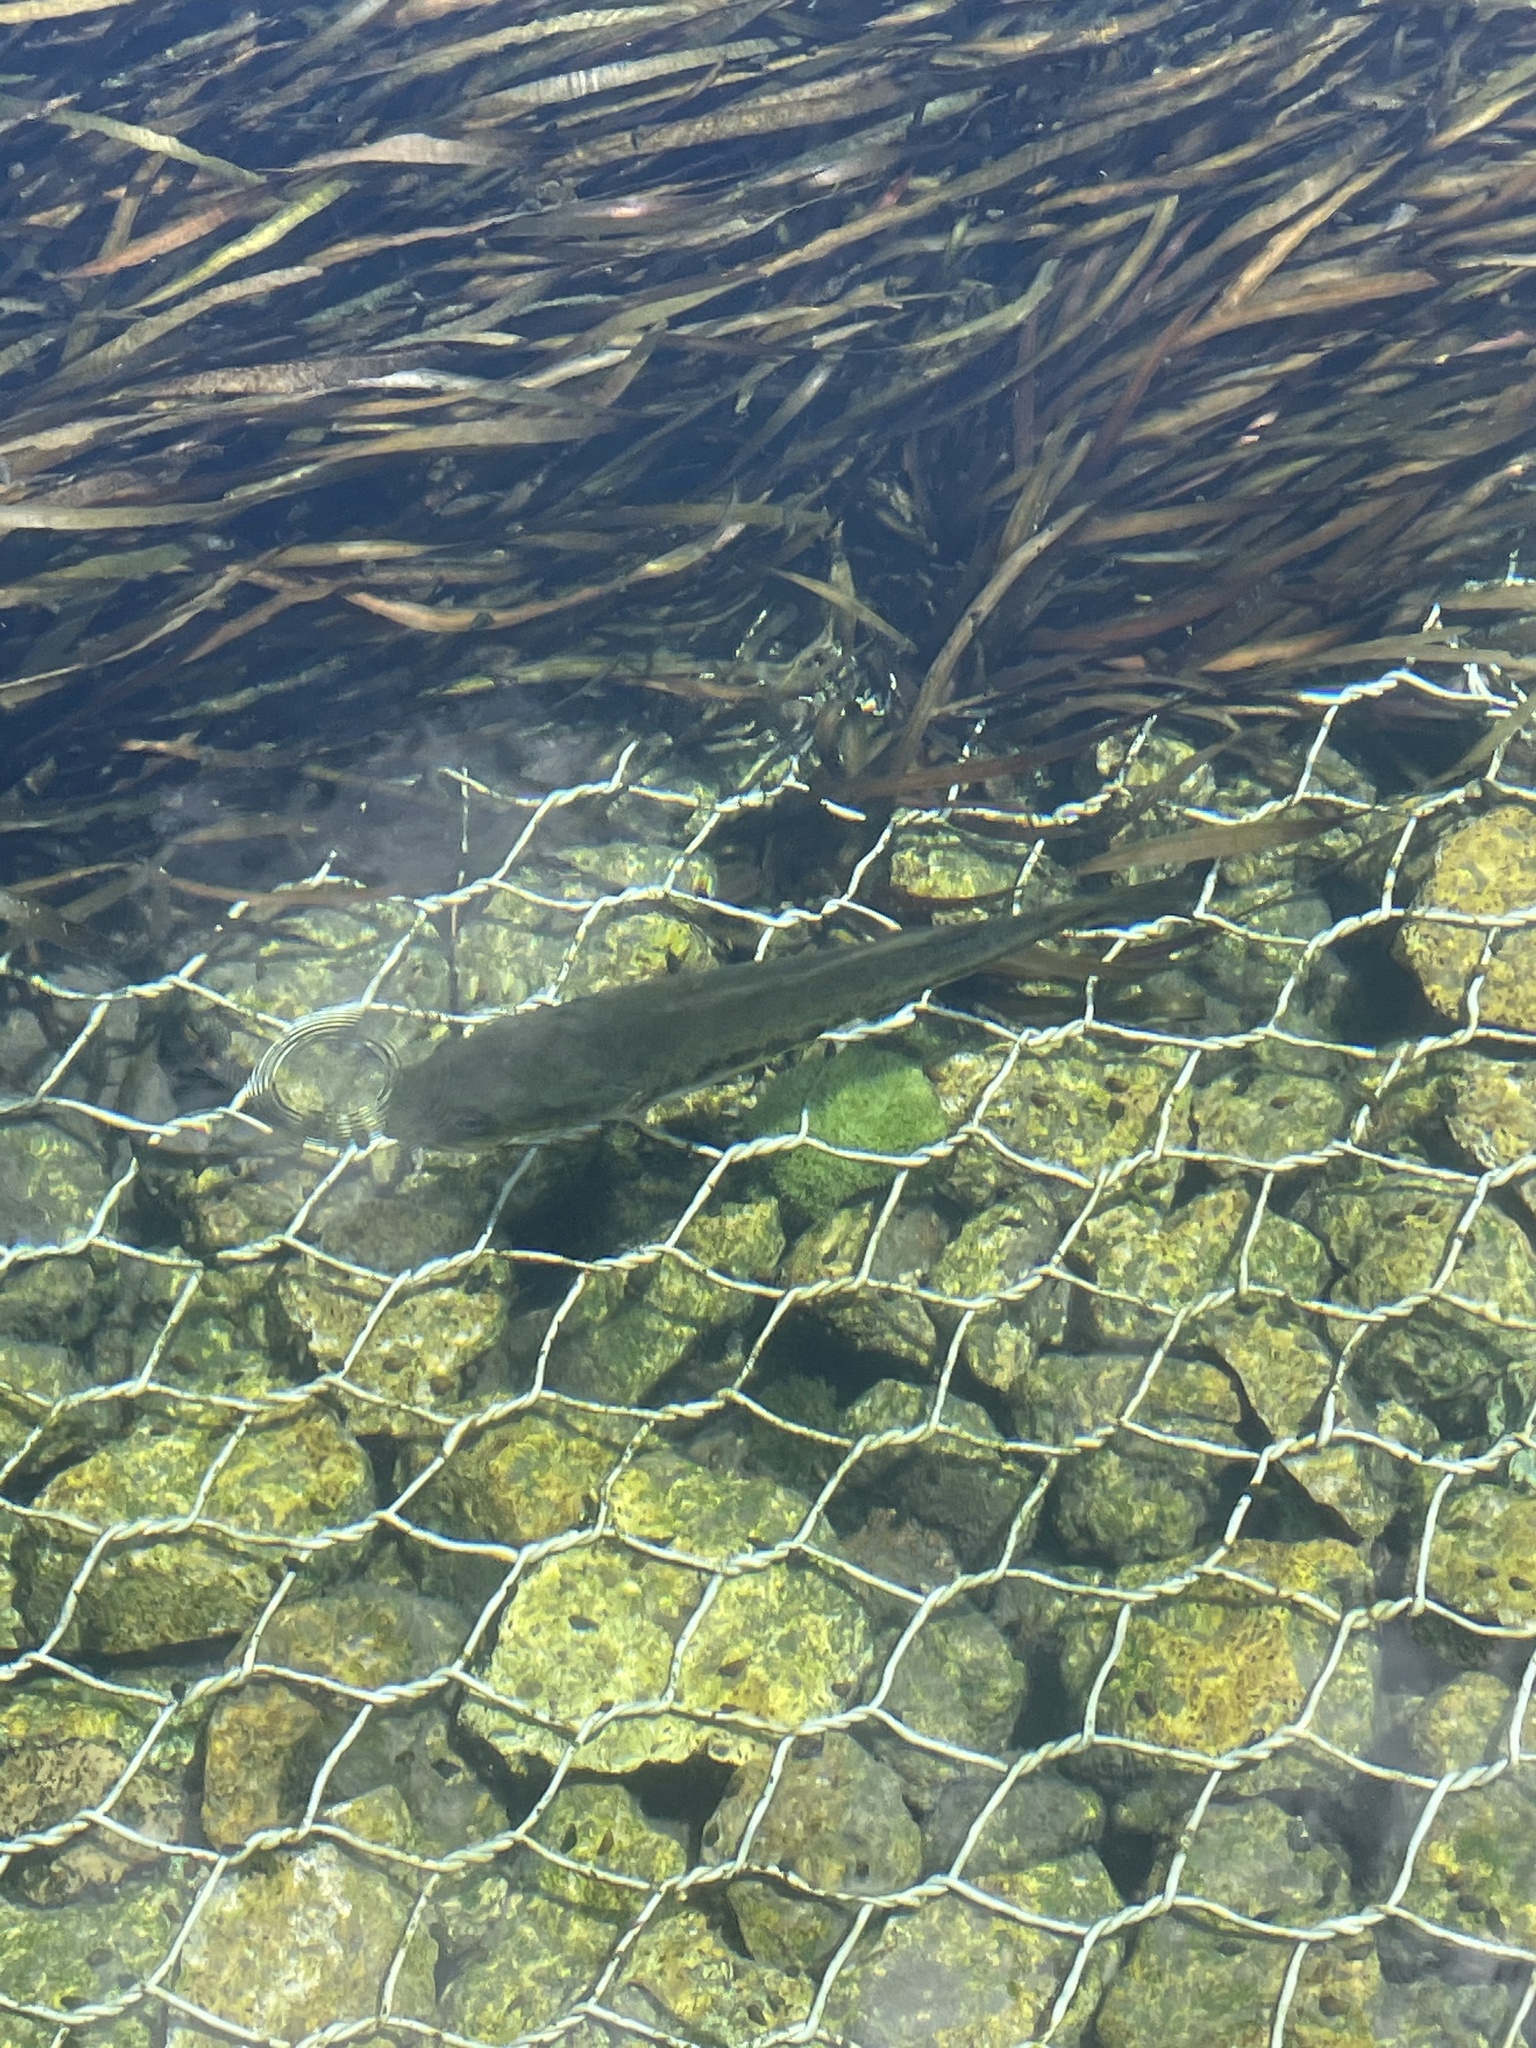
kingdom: Animalia
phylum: Chordata
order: Perciformes
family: Centrarchidae
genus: Micropterus
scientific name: Micropterus
